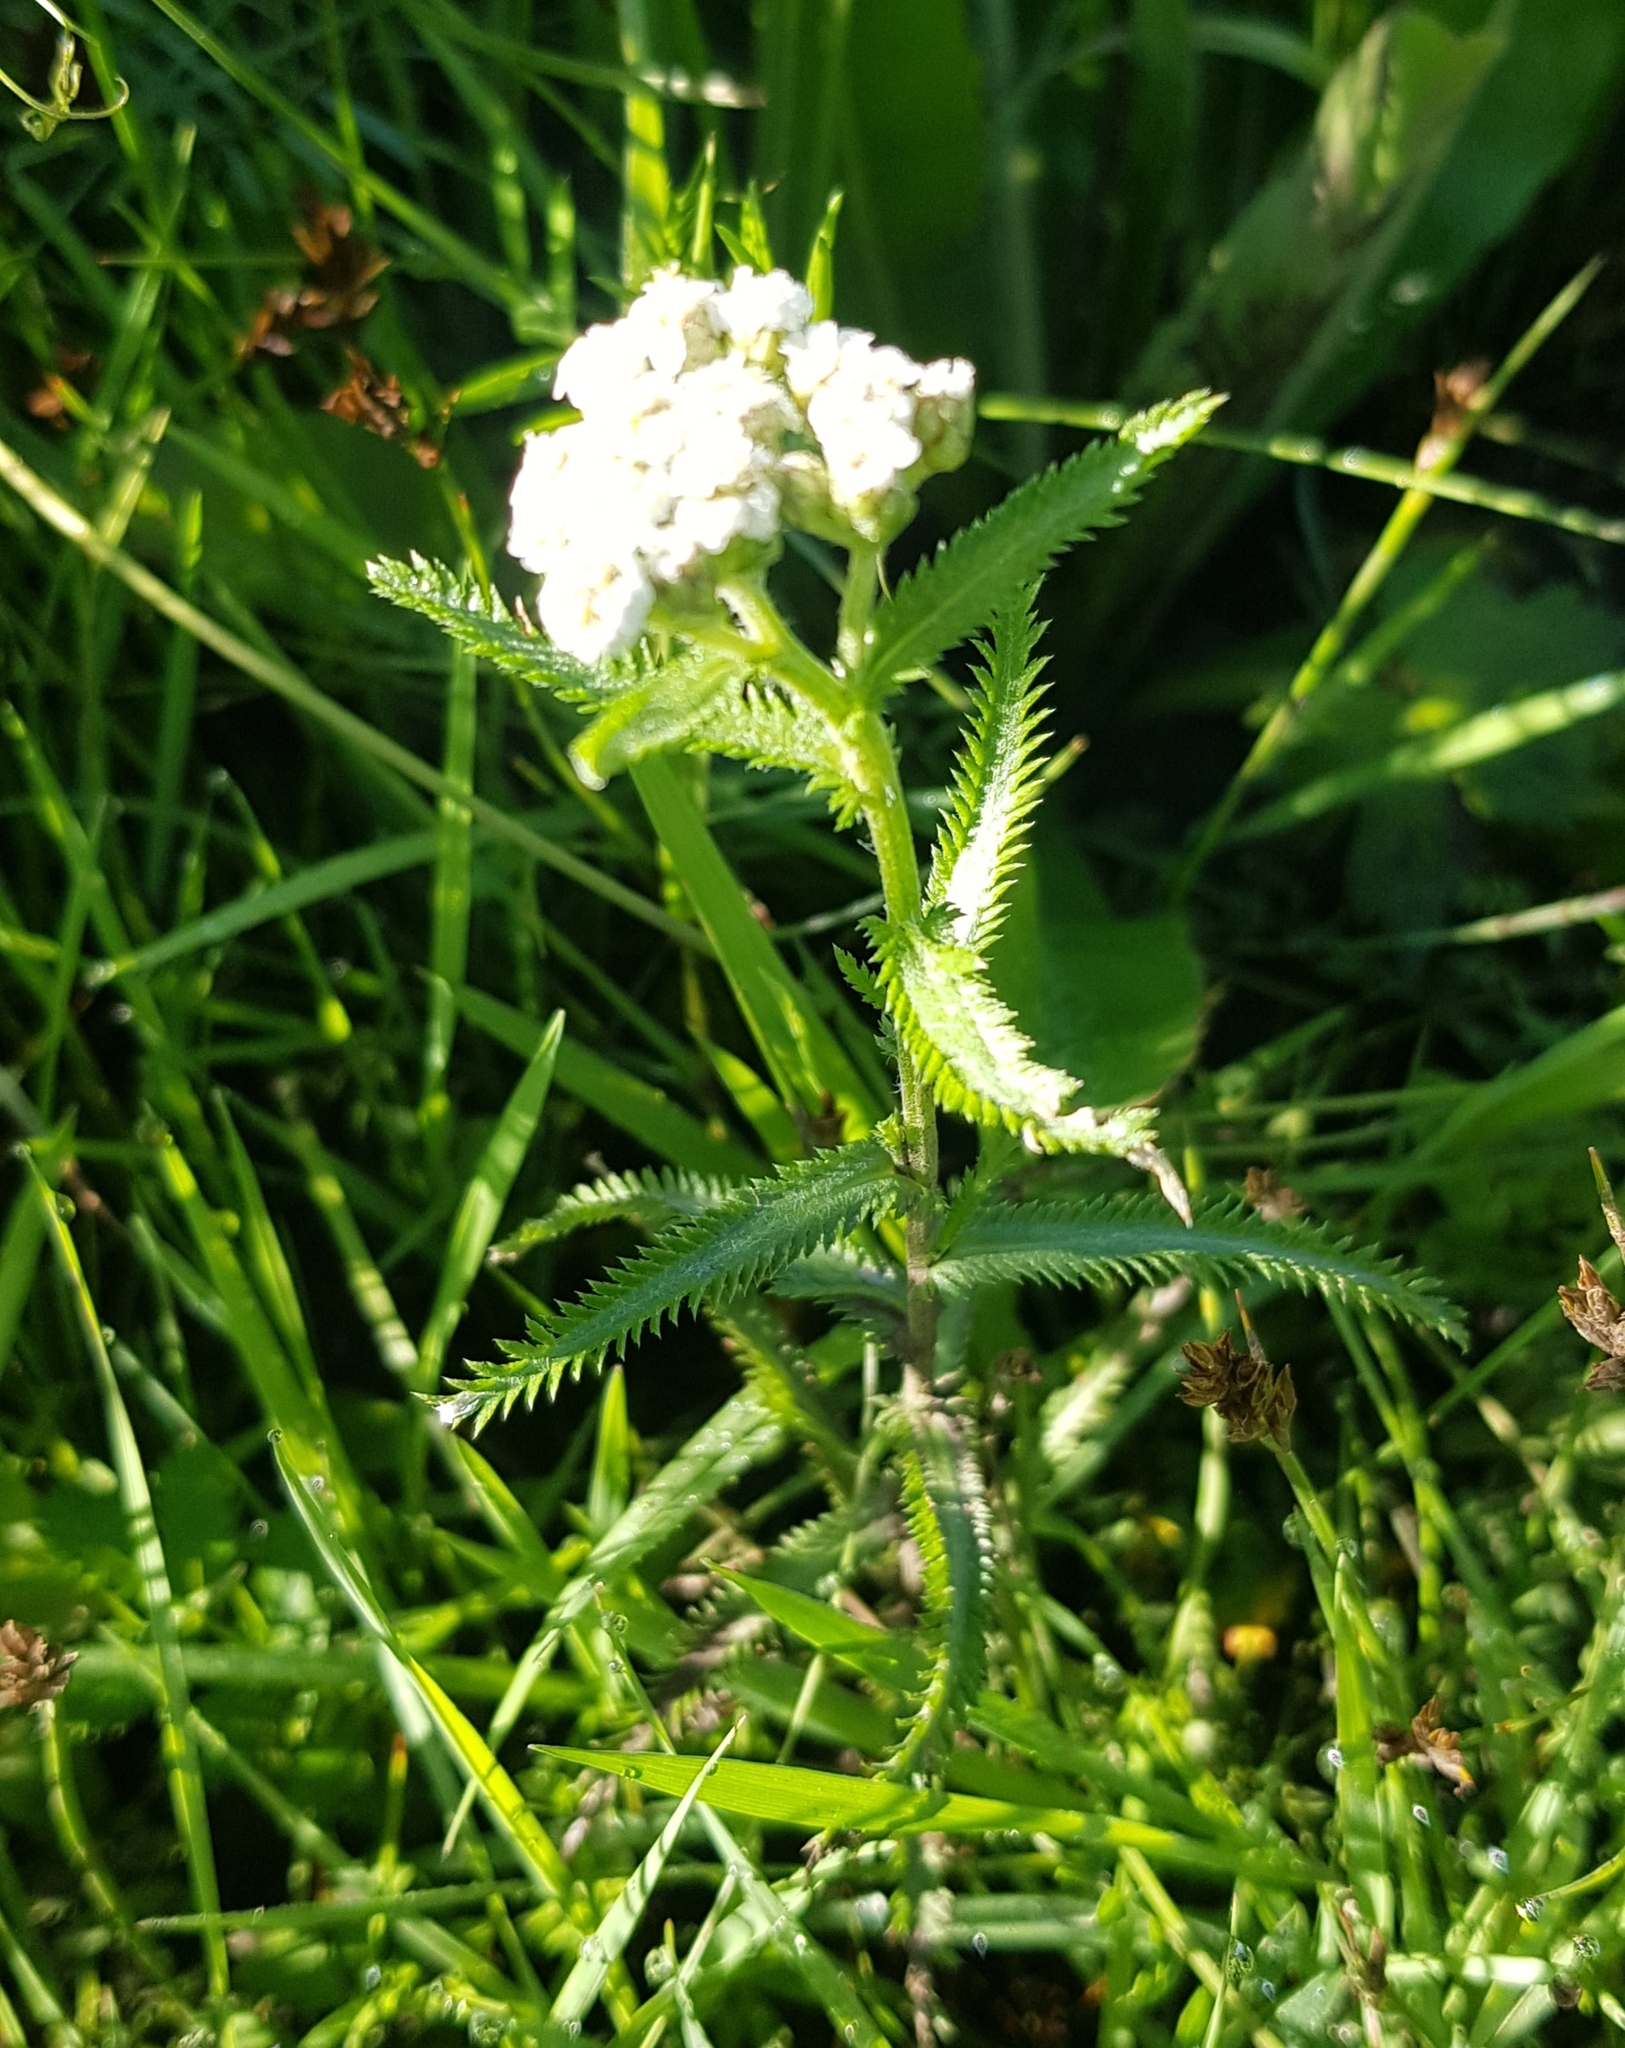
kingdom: Plantae
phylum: Tracheophyta
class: Magnoliopsida
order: Asterales
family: Asteraceae
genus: Achillea
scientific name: Achillea asiatica
